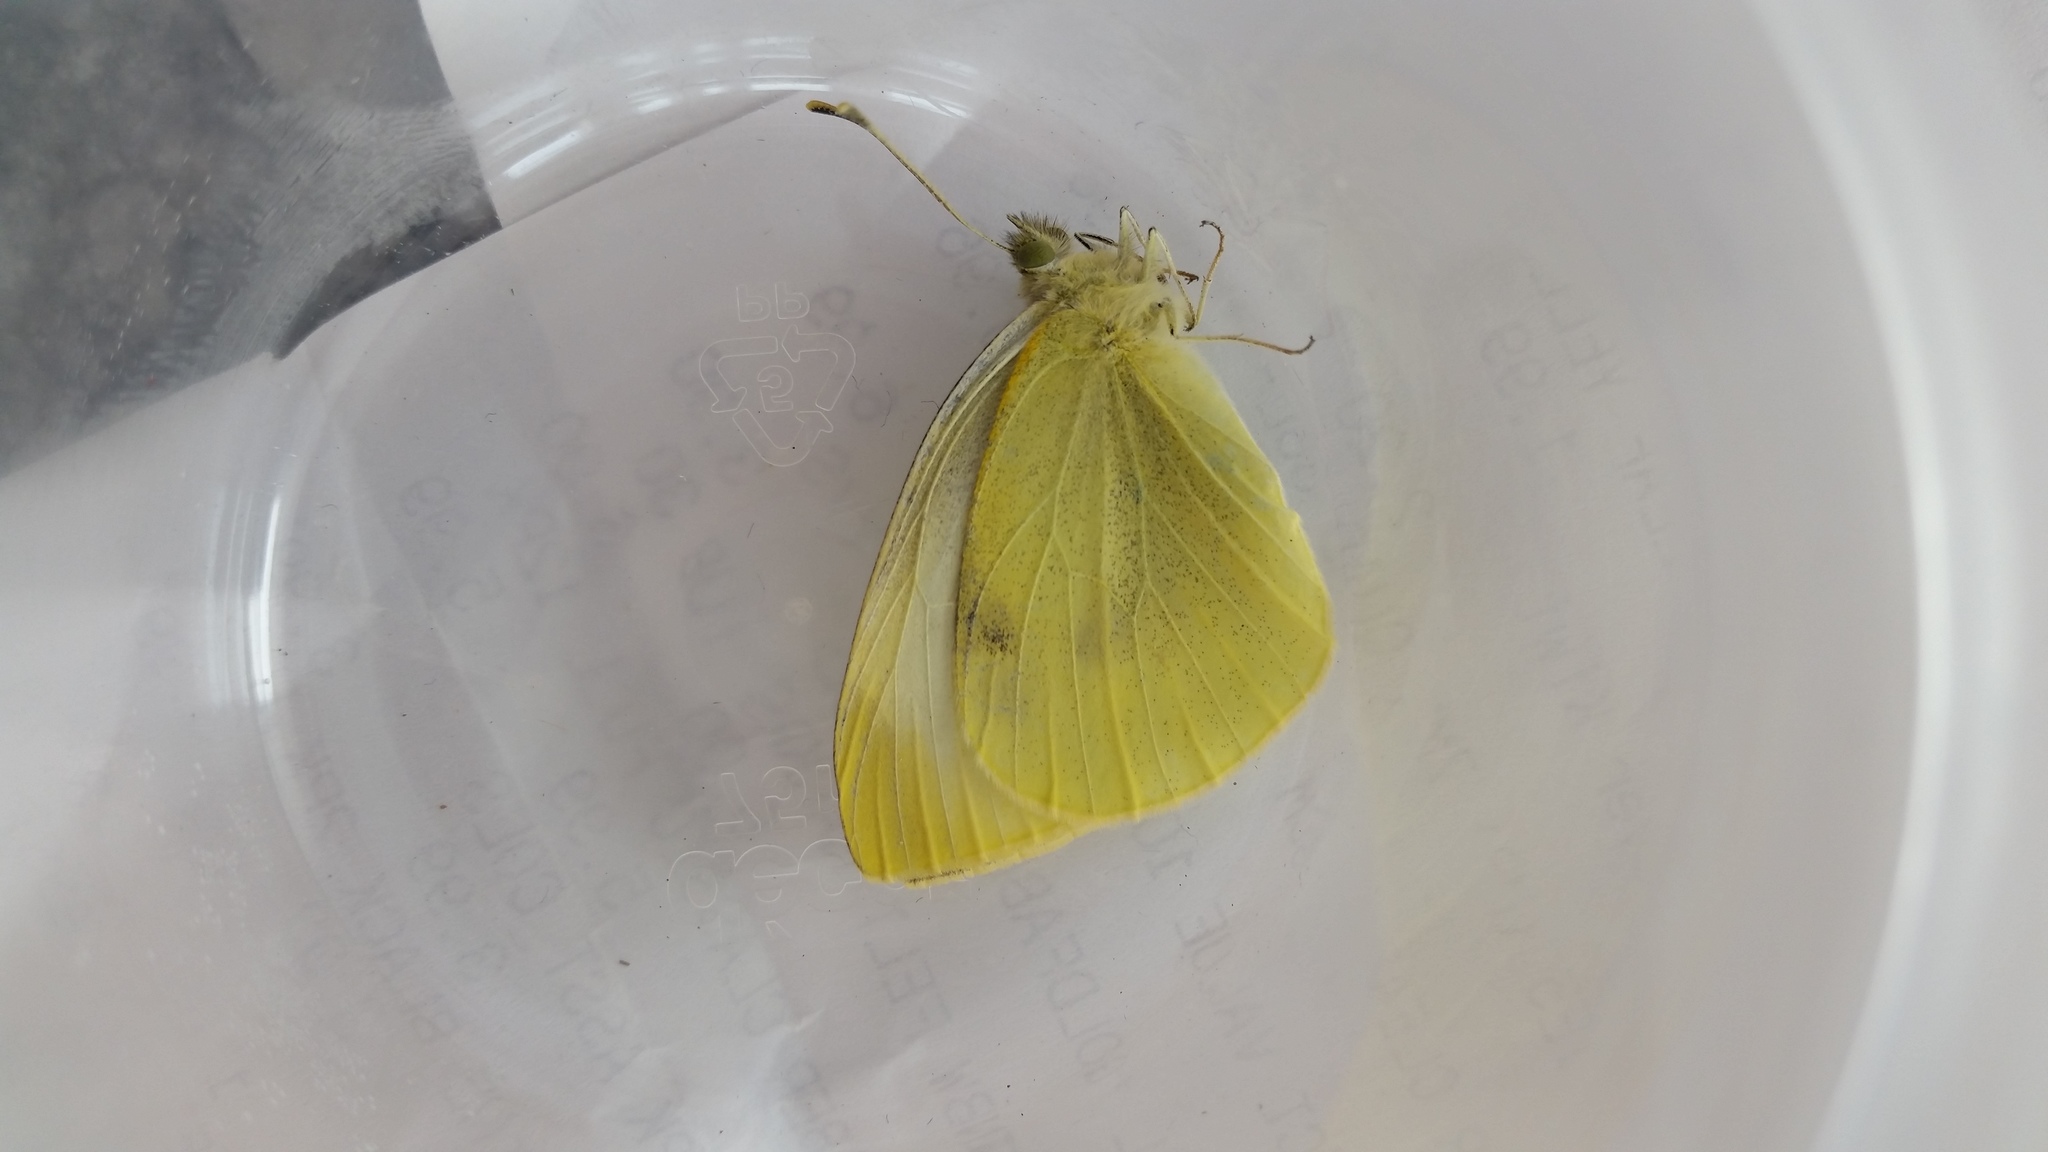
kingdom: Animalia
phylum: Arthropoda
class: Insecta
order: Lepidoptera
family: Pieridae
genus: Pieris
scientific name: Pieris rapae
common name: Small white
